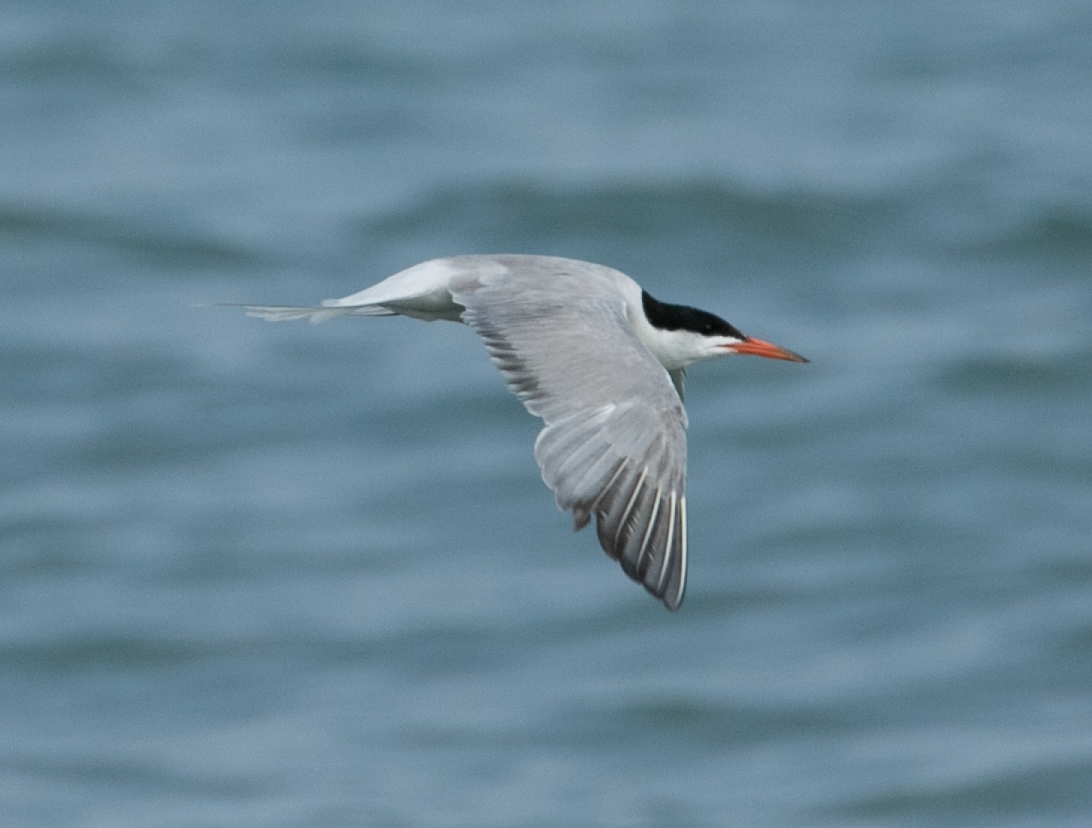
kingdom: Animalia
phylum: Chordata
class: Aves
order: Charadriiformes
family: Laridae
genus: Sterna
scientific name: Sterna hirundo
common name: Common tern
